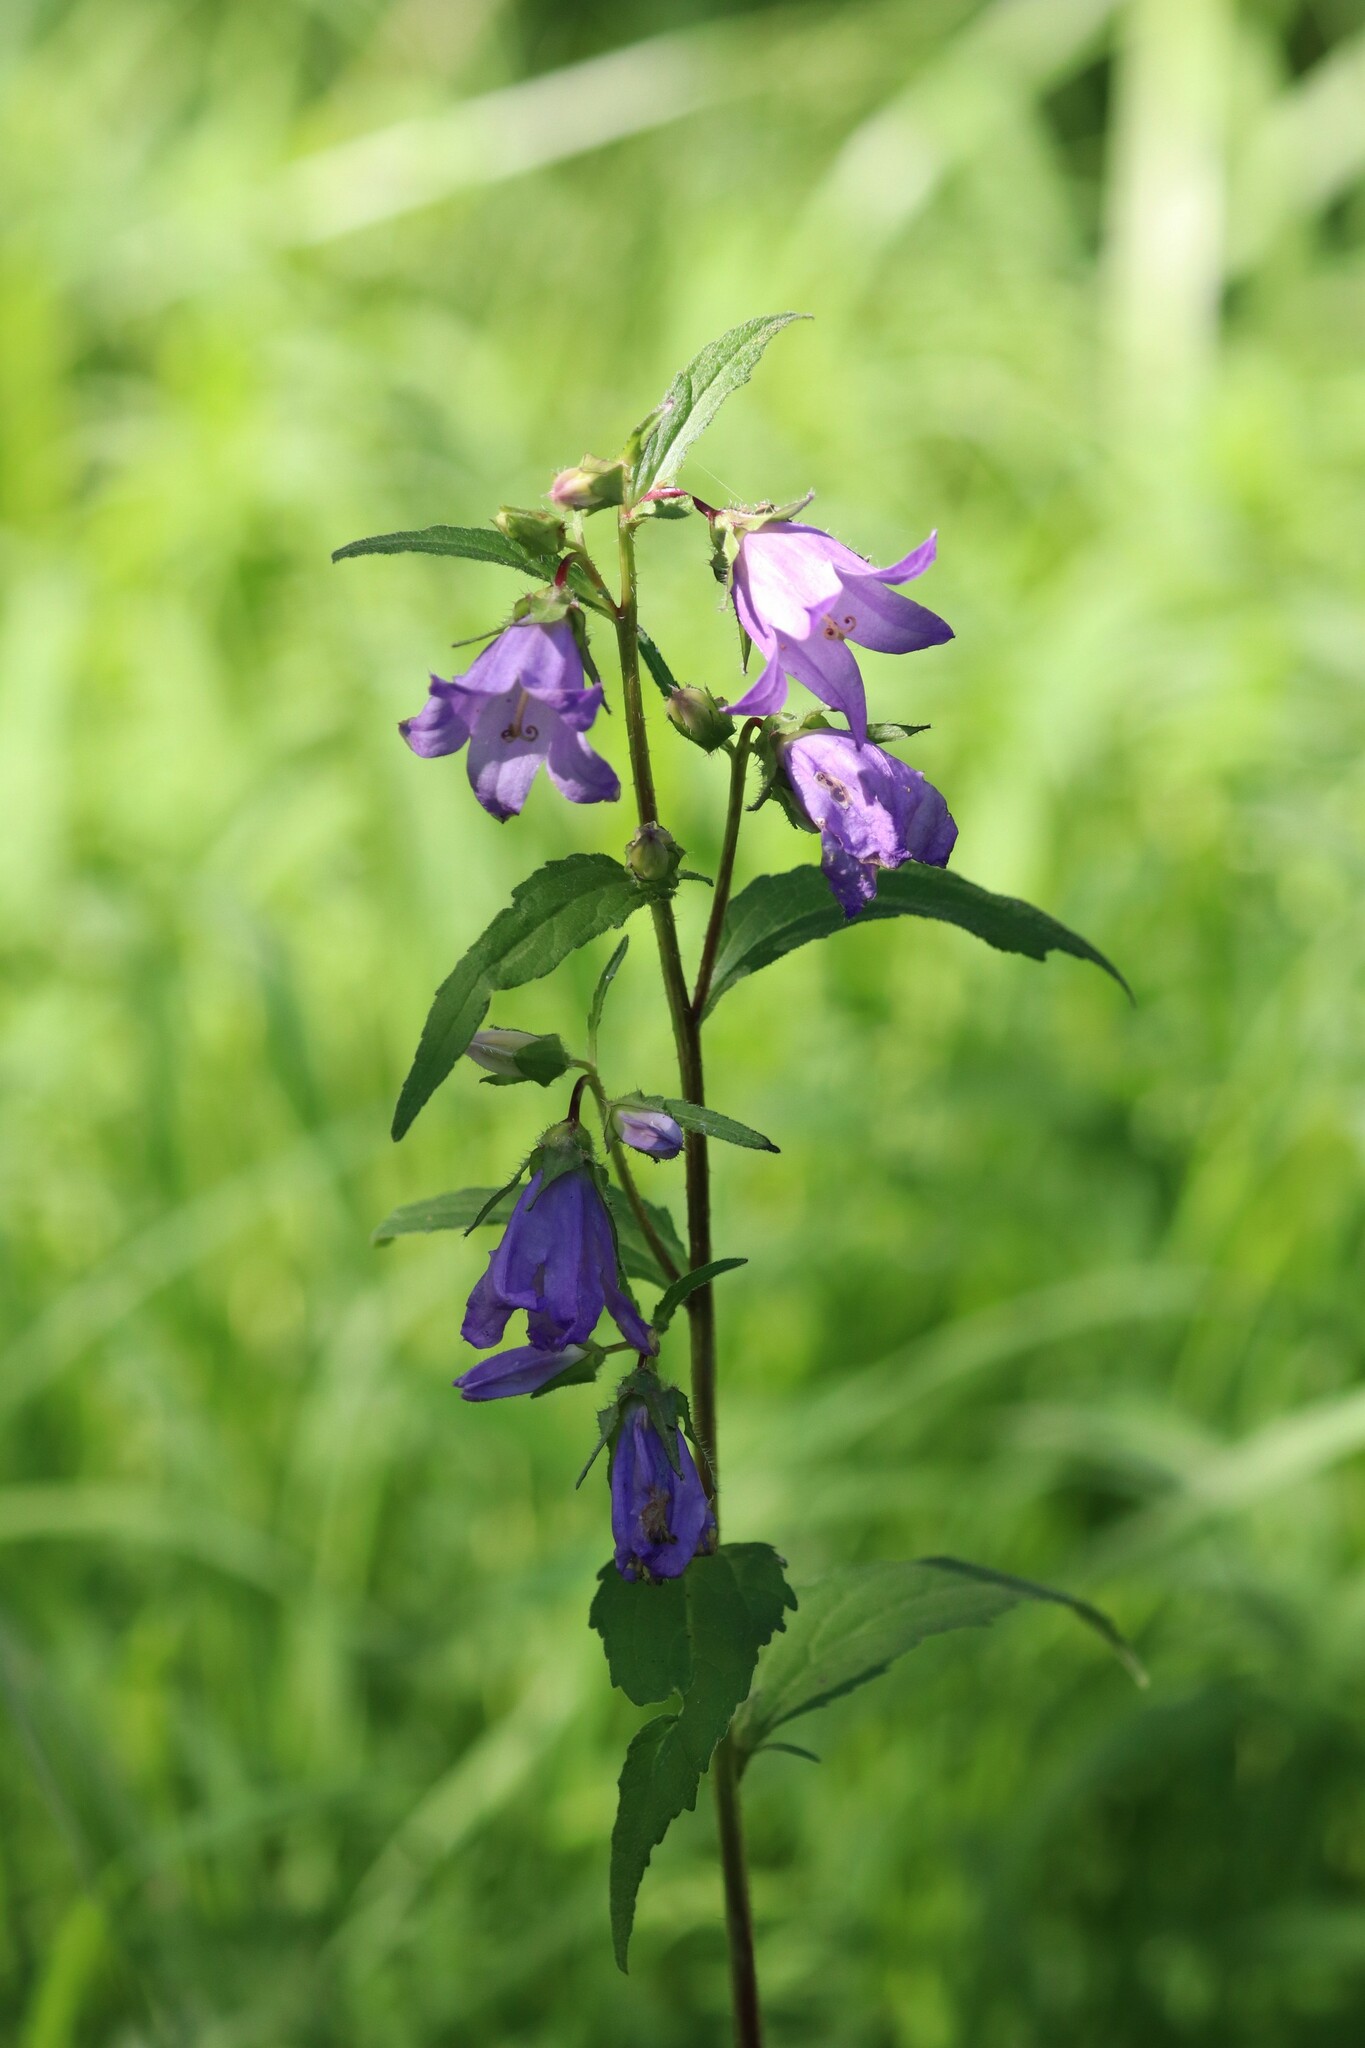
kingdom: Plantae
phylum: Tracheophyta
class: Magnoliopsida
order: Asterales
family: Campanulaceae
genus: Campanula
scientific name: Campanula trachelium
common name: Nettle-leaved bellflower
